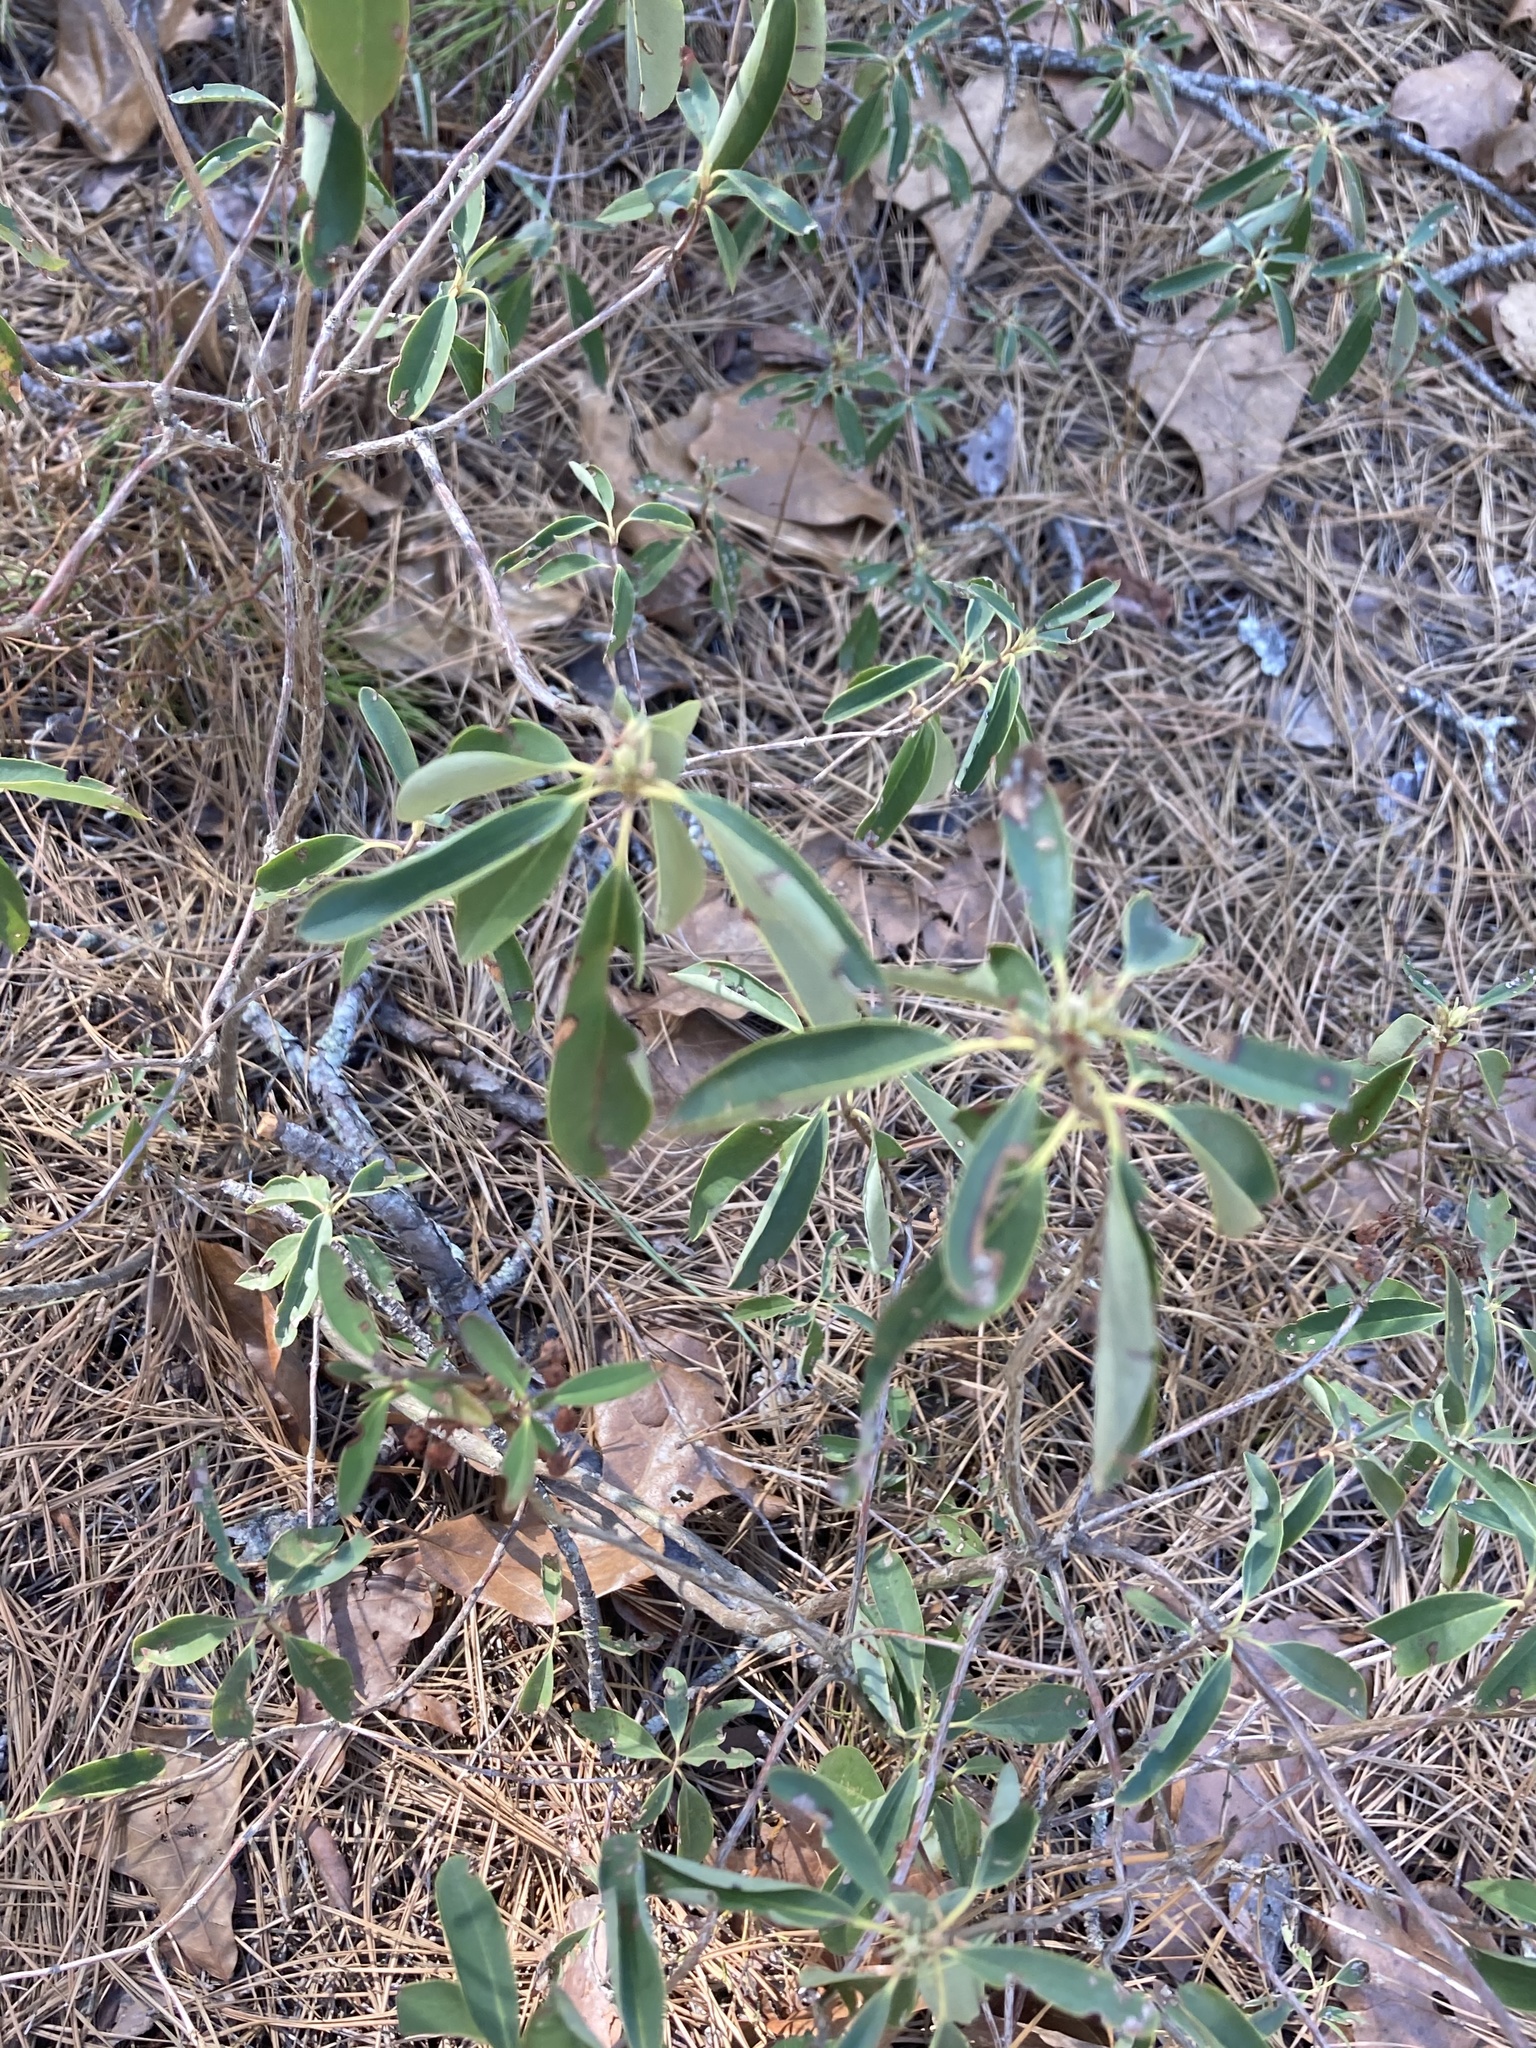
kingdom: Plantae
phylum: Tracheophyta
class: Magnoliopsida
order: Ericales
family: Ericaceae
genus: Kalmia
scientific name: Kalmia angustifolia
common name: Sheep-laurel
